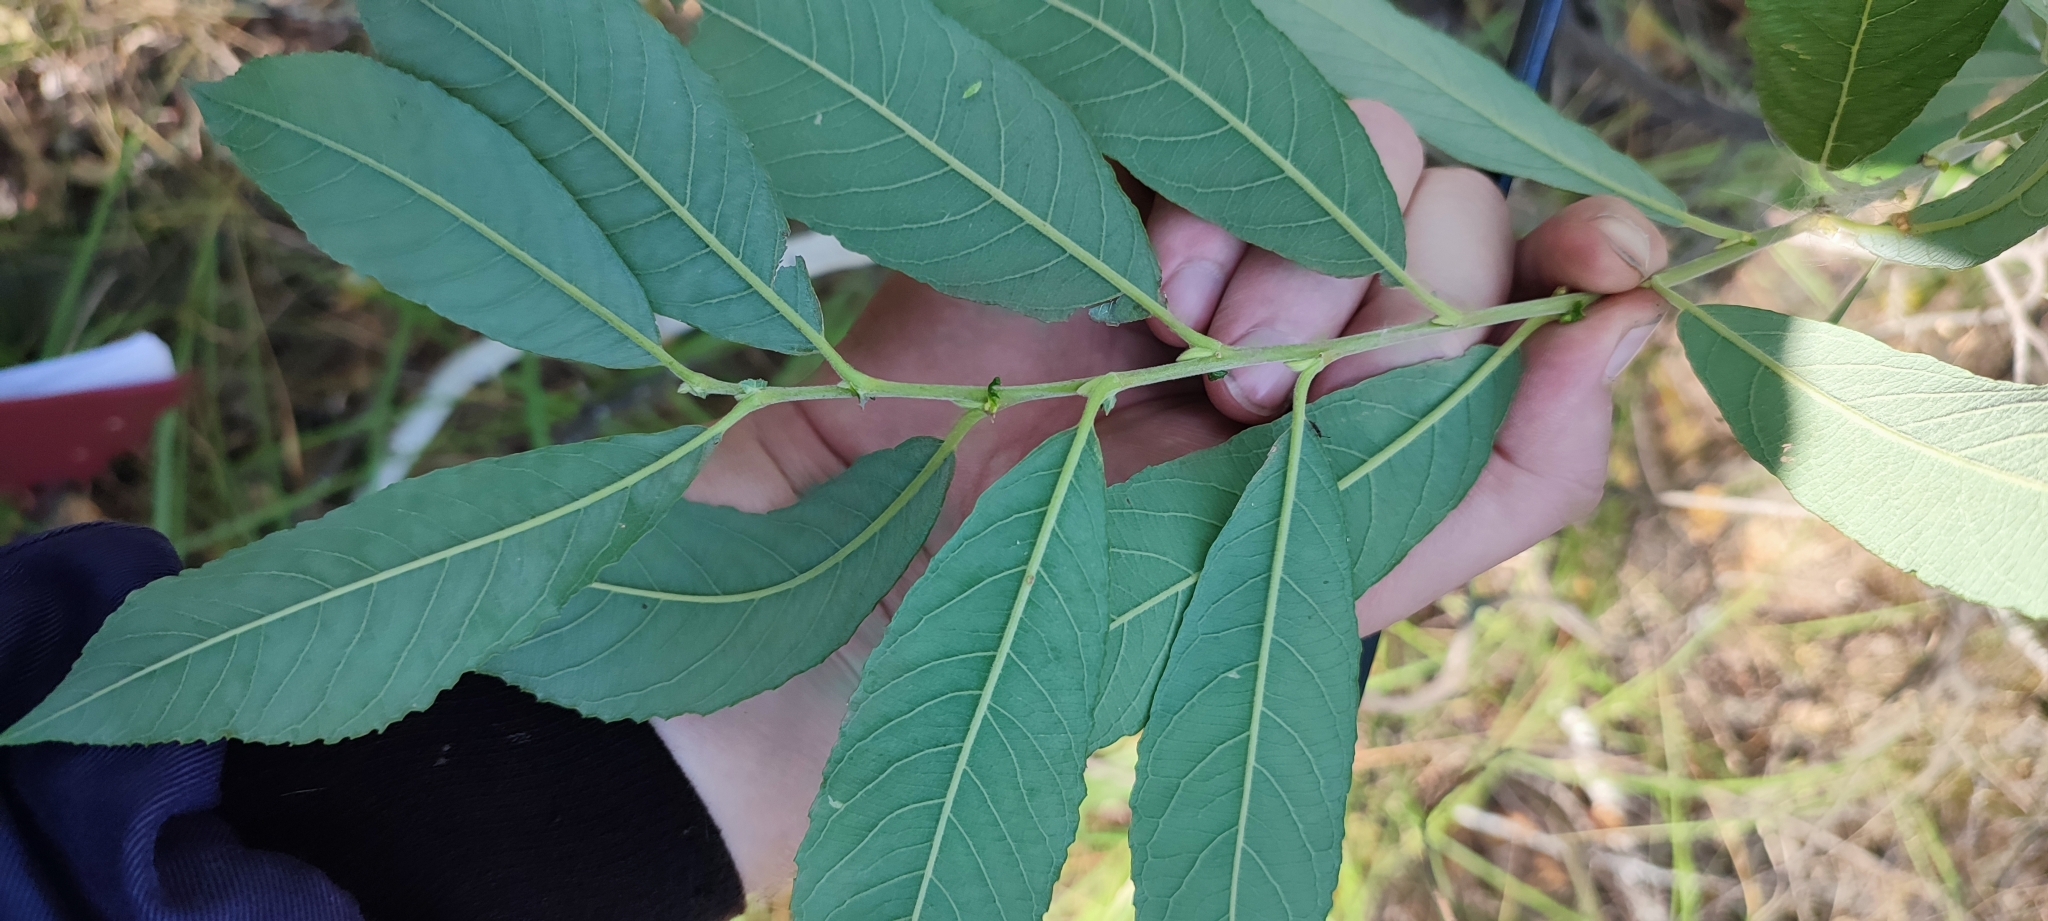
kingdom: Plantae
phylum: Tracheophyta
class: Magnoliopsida
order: Malpighiales
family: Salicaceae
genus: Salix
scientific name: Salix cinerea
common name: Common sallow
